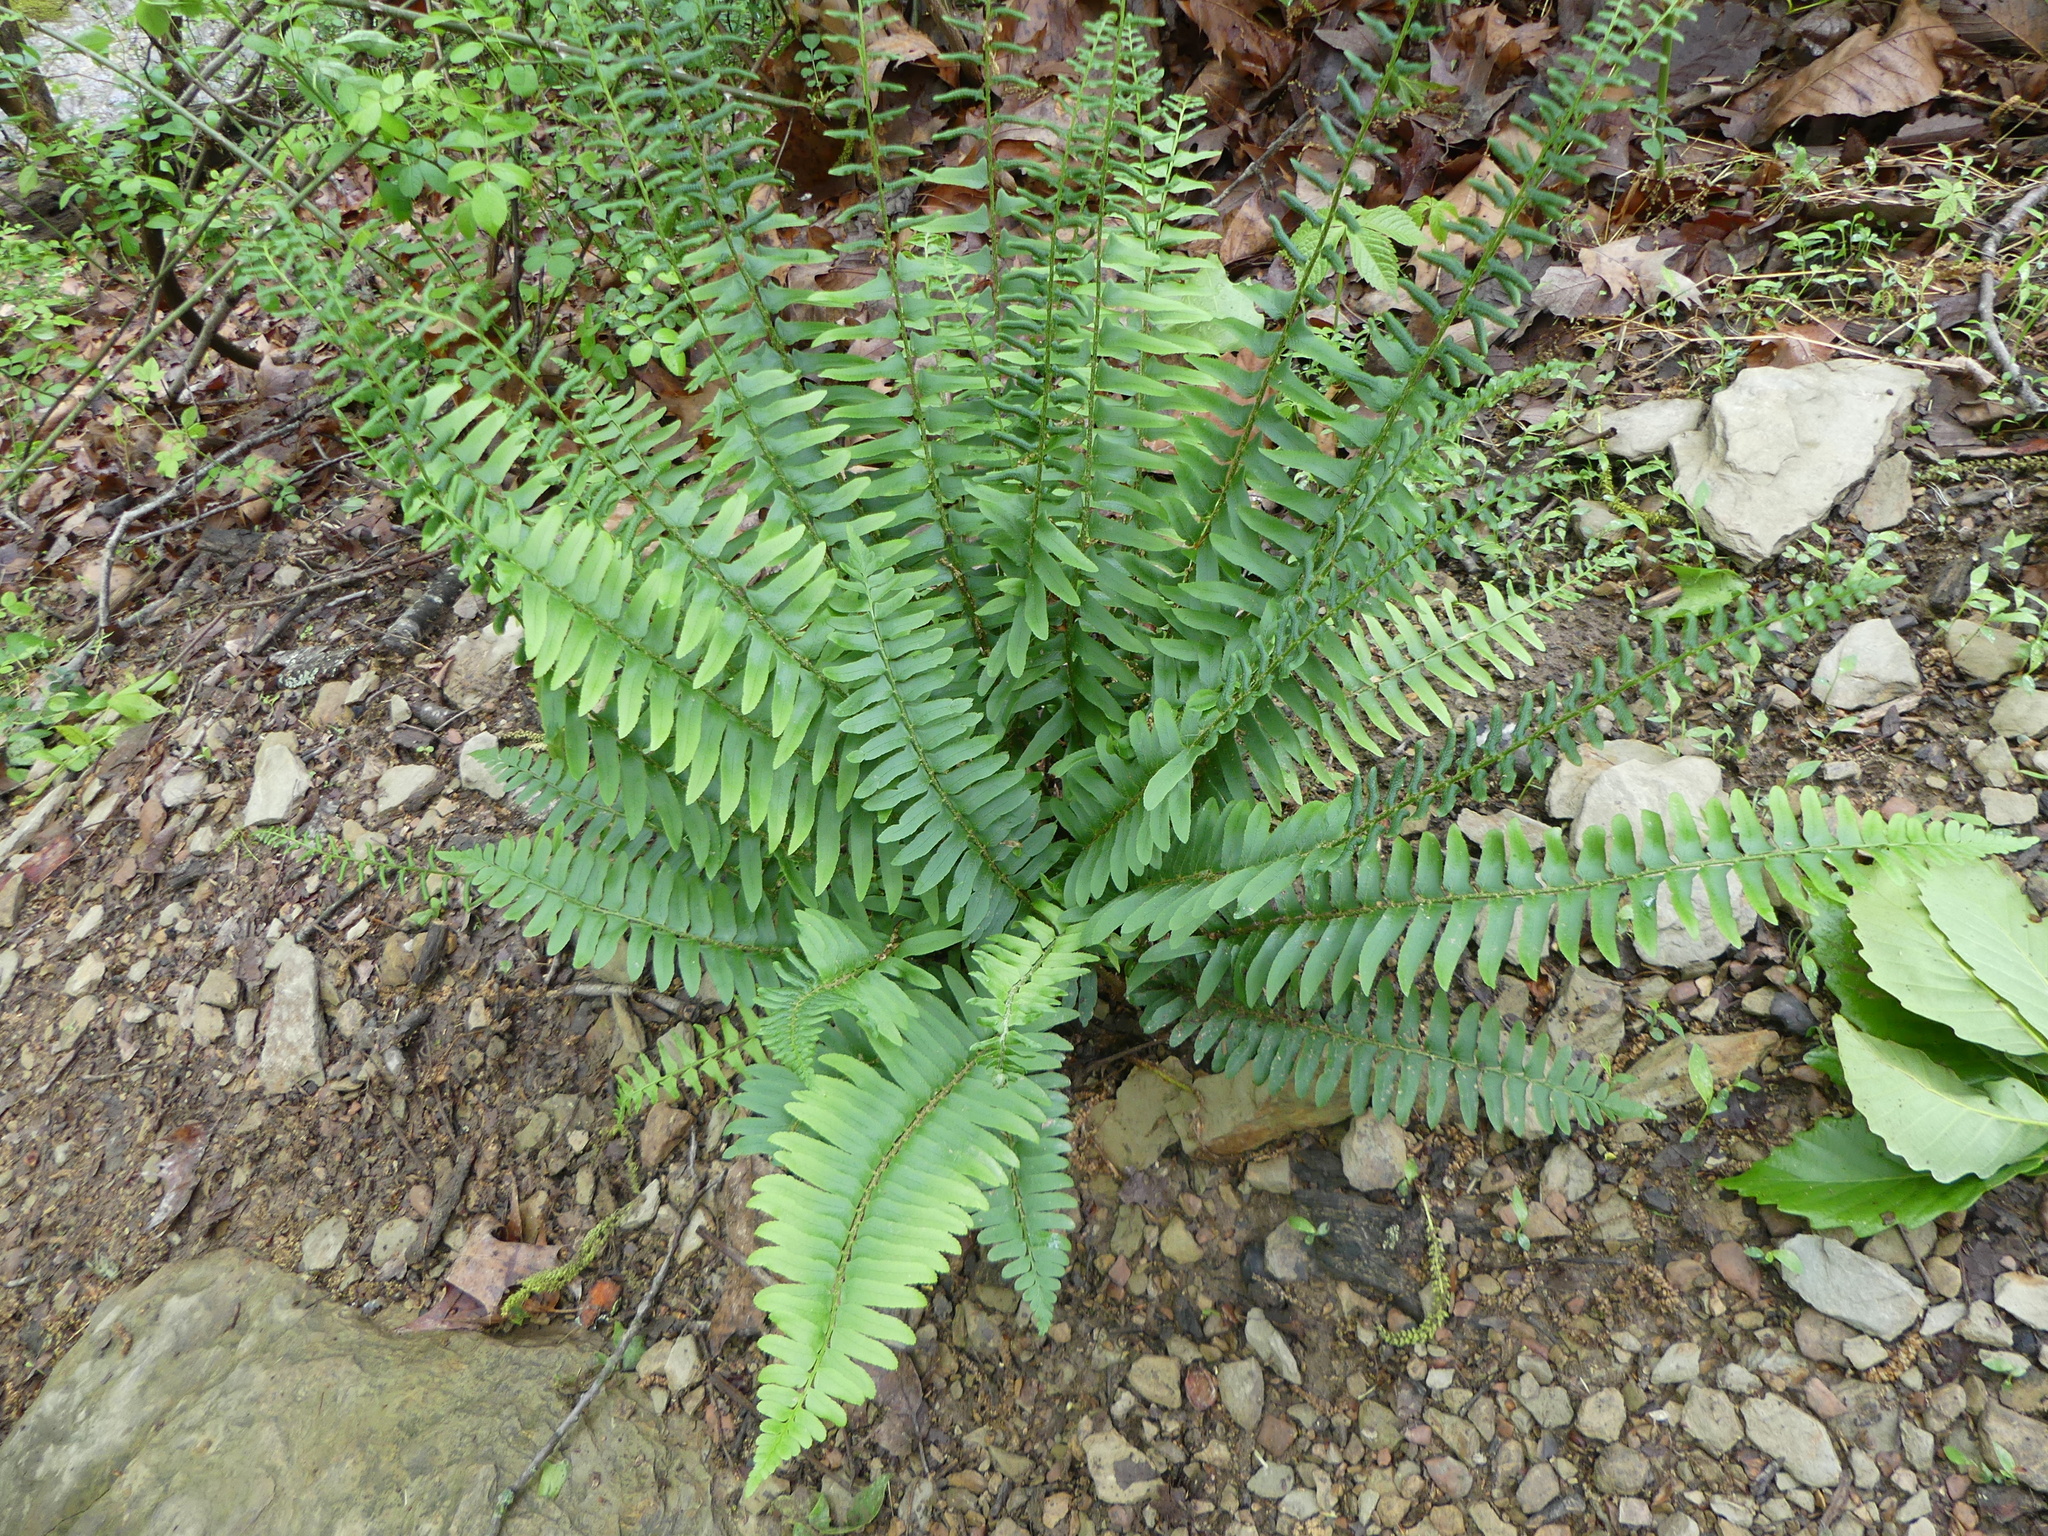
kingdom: Plantae
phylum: Tracheophyta
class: Polypodiopsida
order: Polypodiales
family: Dryopteridaceae
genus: Polystichum
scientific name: Polystichum acrostichoides
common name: Christmas fern
